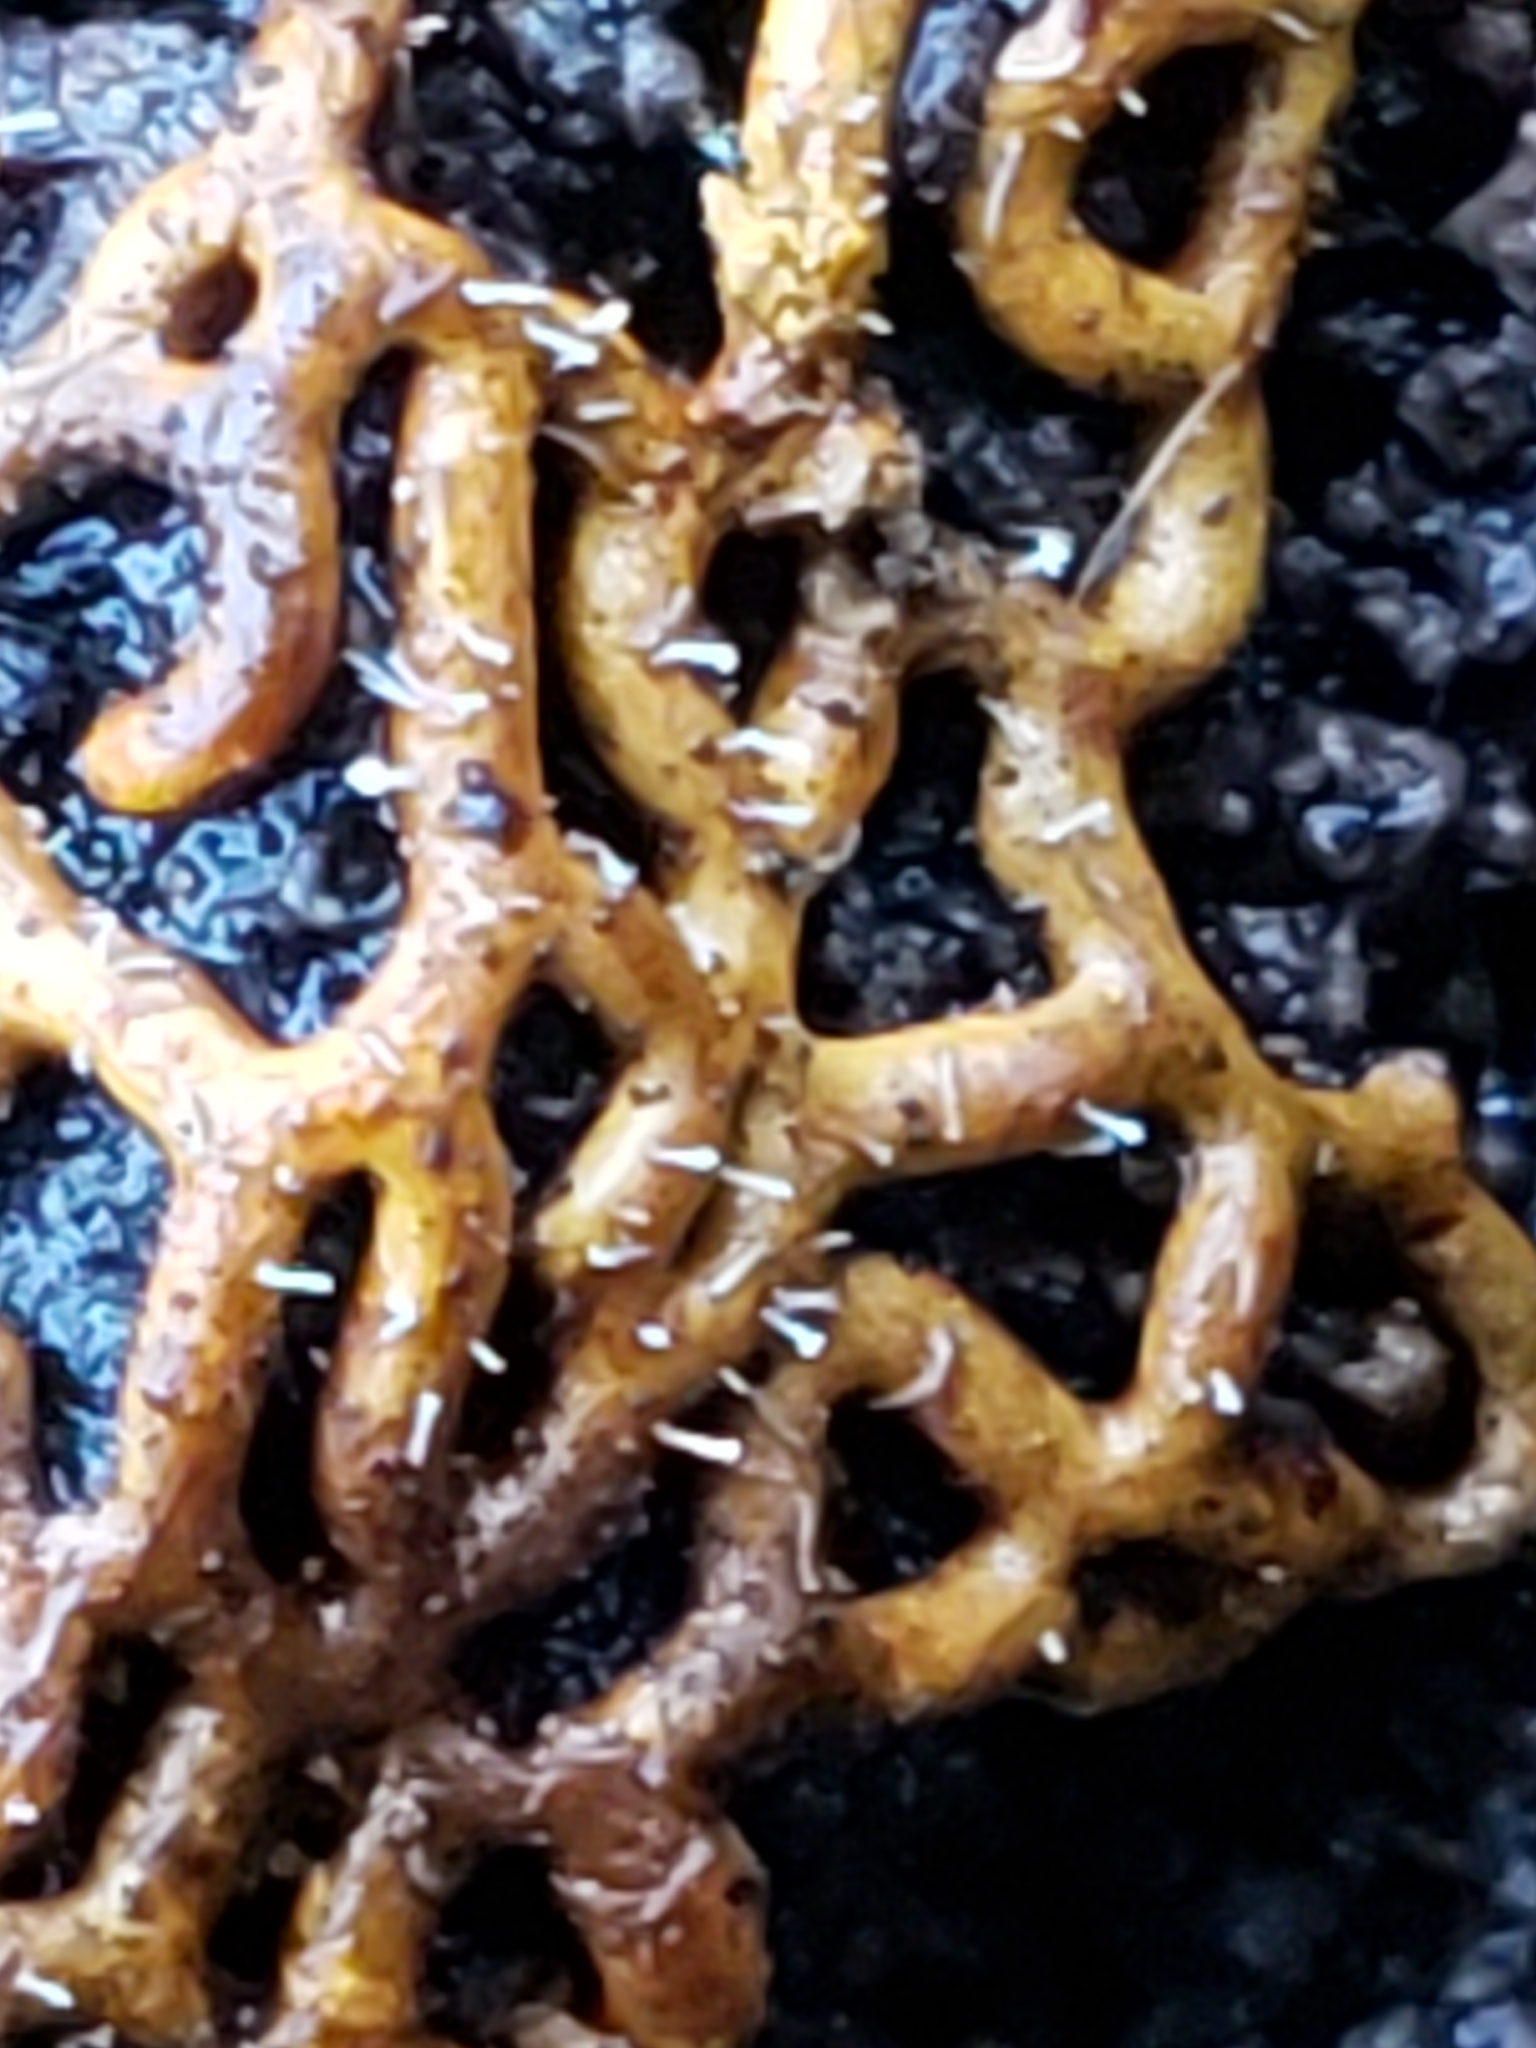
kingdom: Fungi
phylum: Ascomycota
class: Sordariomycetes
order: Hypocreales
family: Ophiocordycipitaceae
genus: Polycephalomyces
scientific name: Polycephalomyces tomentosus
